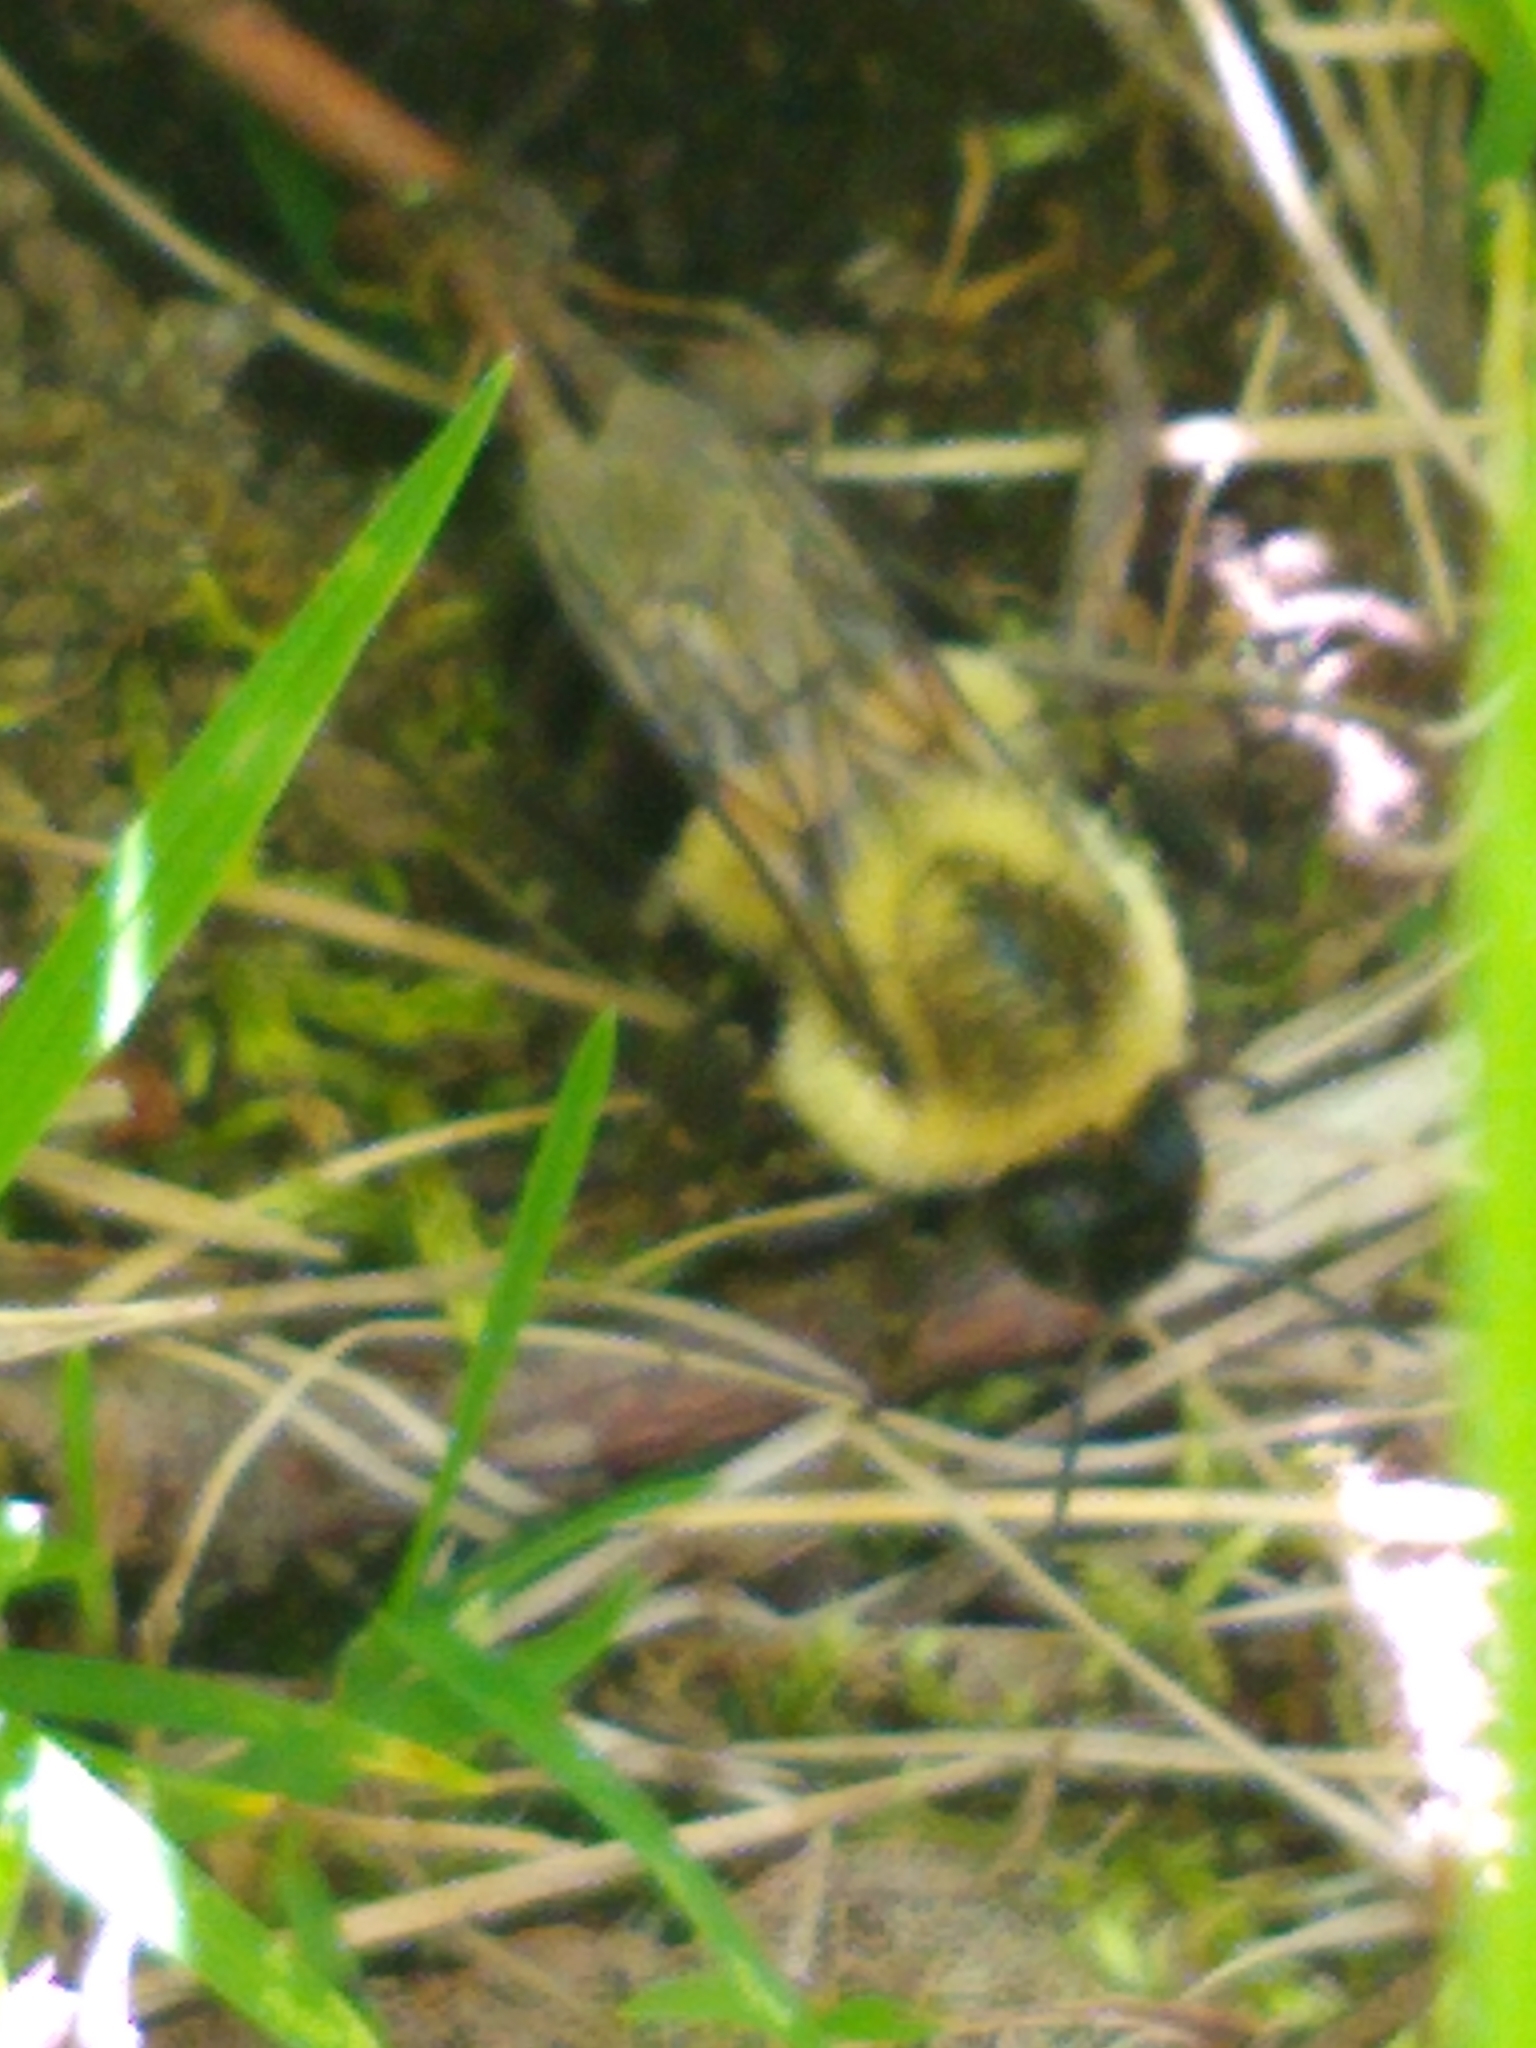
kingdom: Animalia
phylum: Arthropoda
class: Insecta
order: Hymenoptera
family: Apidae
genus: Bombus
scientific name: Bombus impatiens
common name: Common eastern bumble bee
